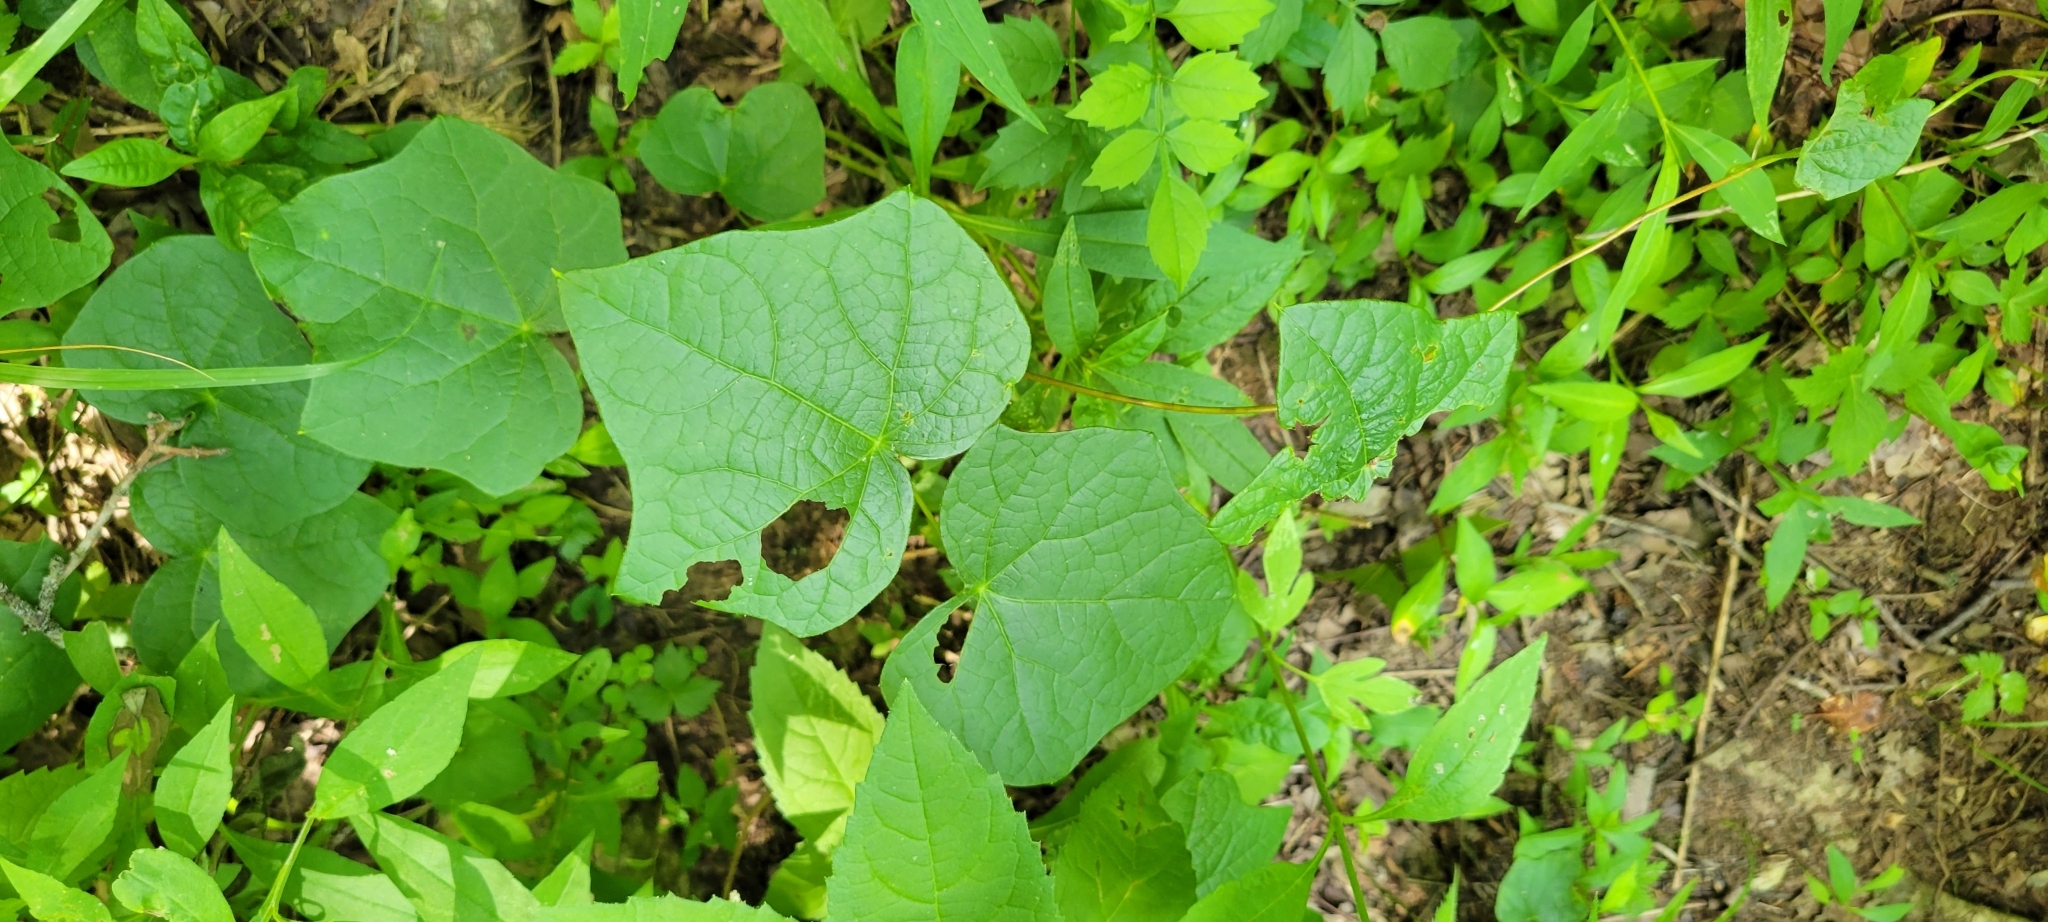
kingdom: Plantae
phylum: Tracheophyta
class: Magnoliopsida
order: Ranunculales
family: Menispermaceae
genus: Menispermum
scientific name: Menispermum canadense
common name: Moonseed
